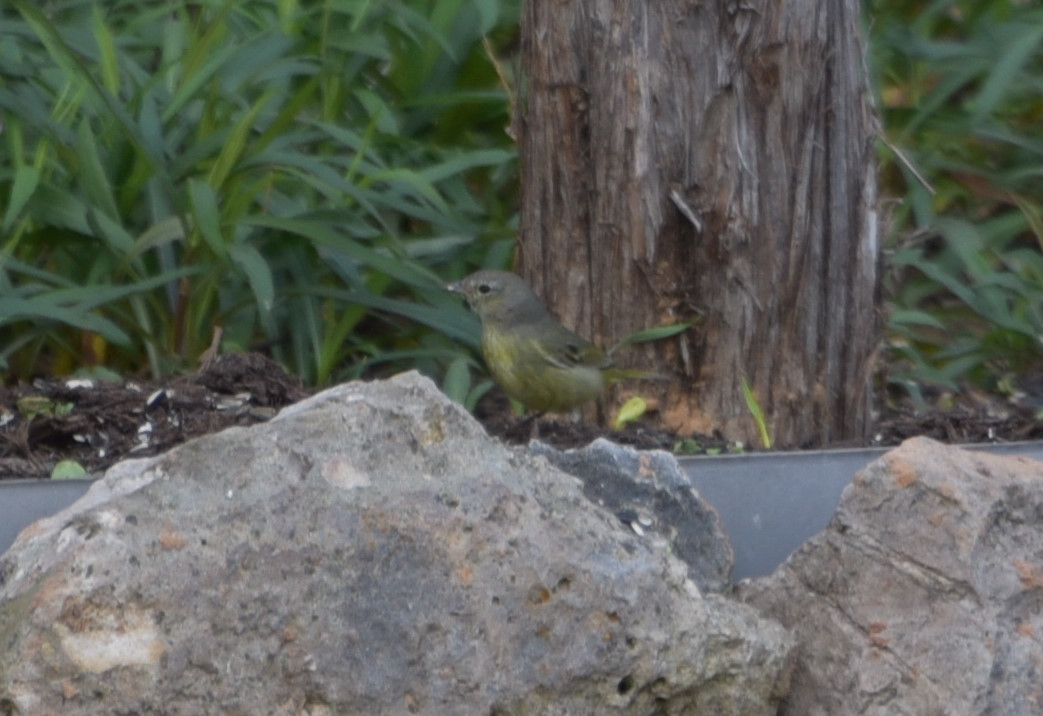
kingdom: Animalia
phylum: Chordata
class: Aves
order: Passeriformes
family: Parulidae
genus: Leiothlypis
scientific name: Leiothlypis celata
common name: Orange-crowned warbler
